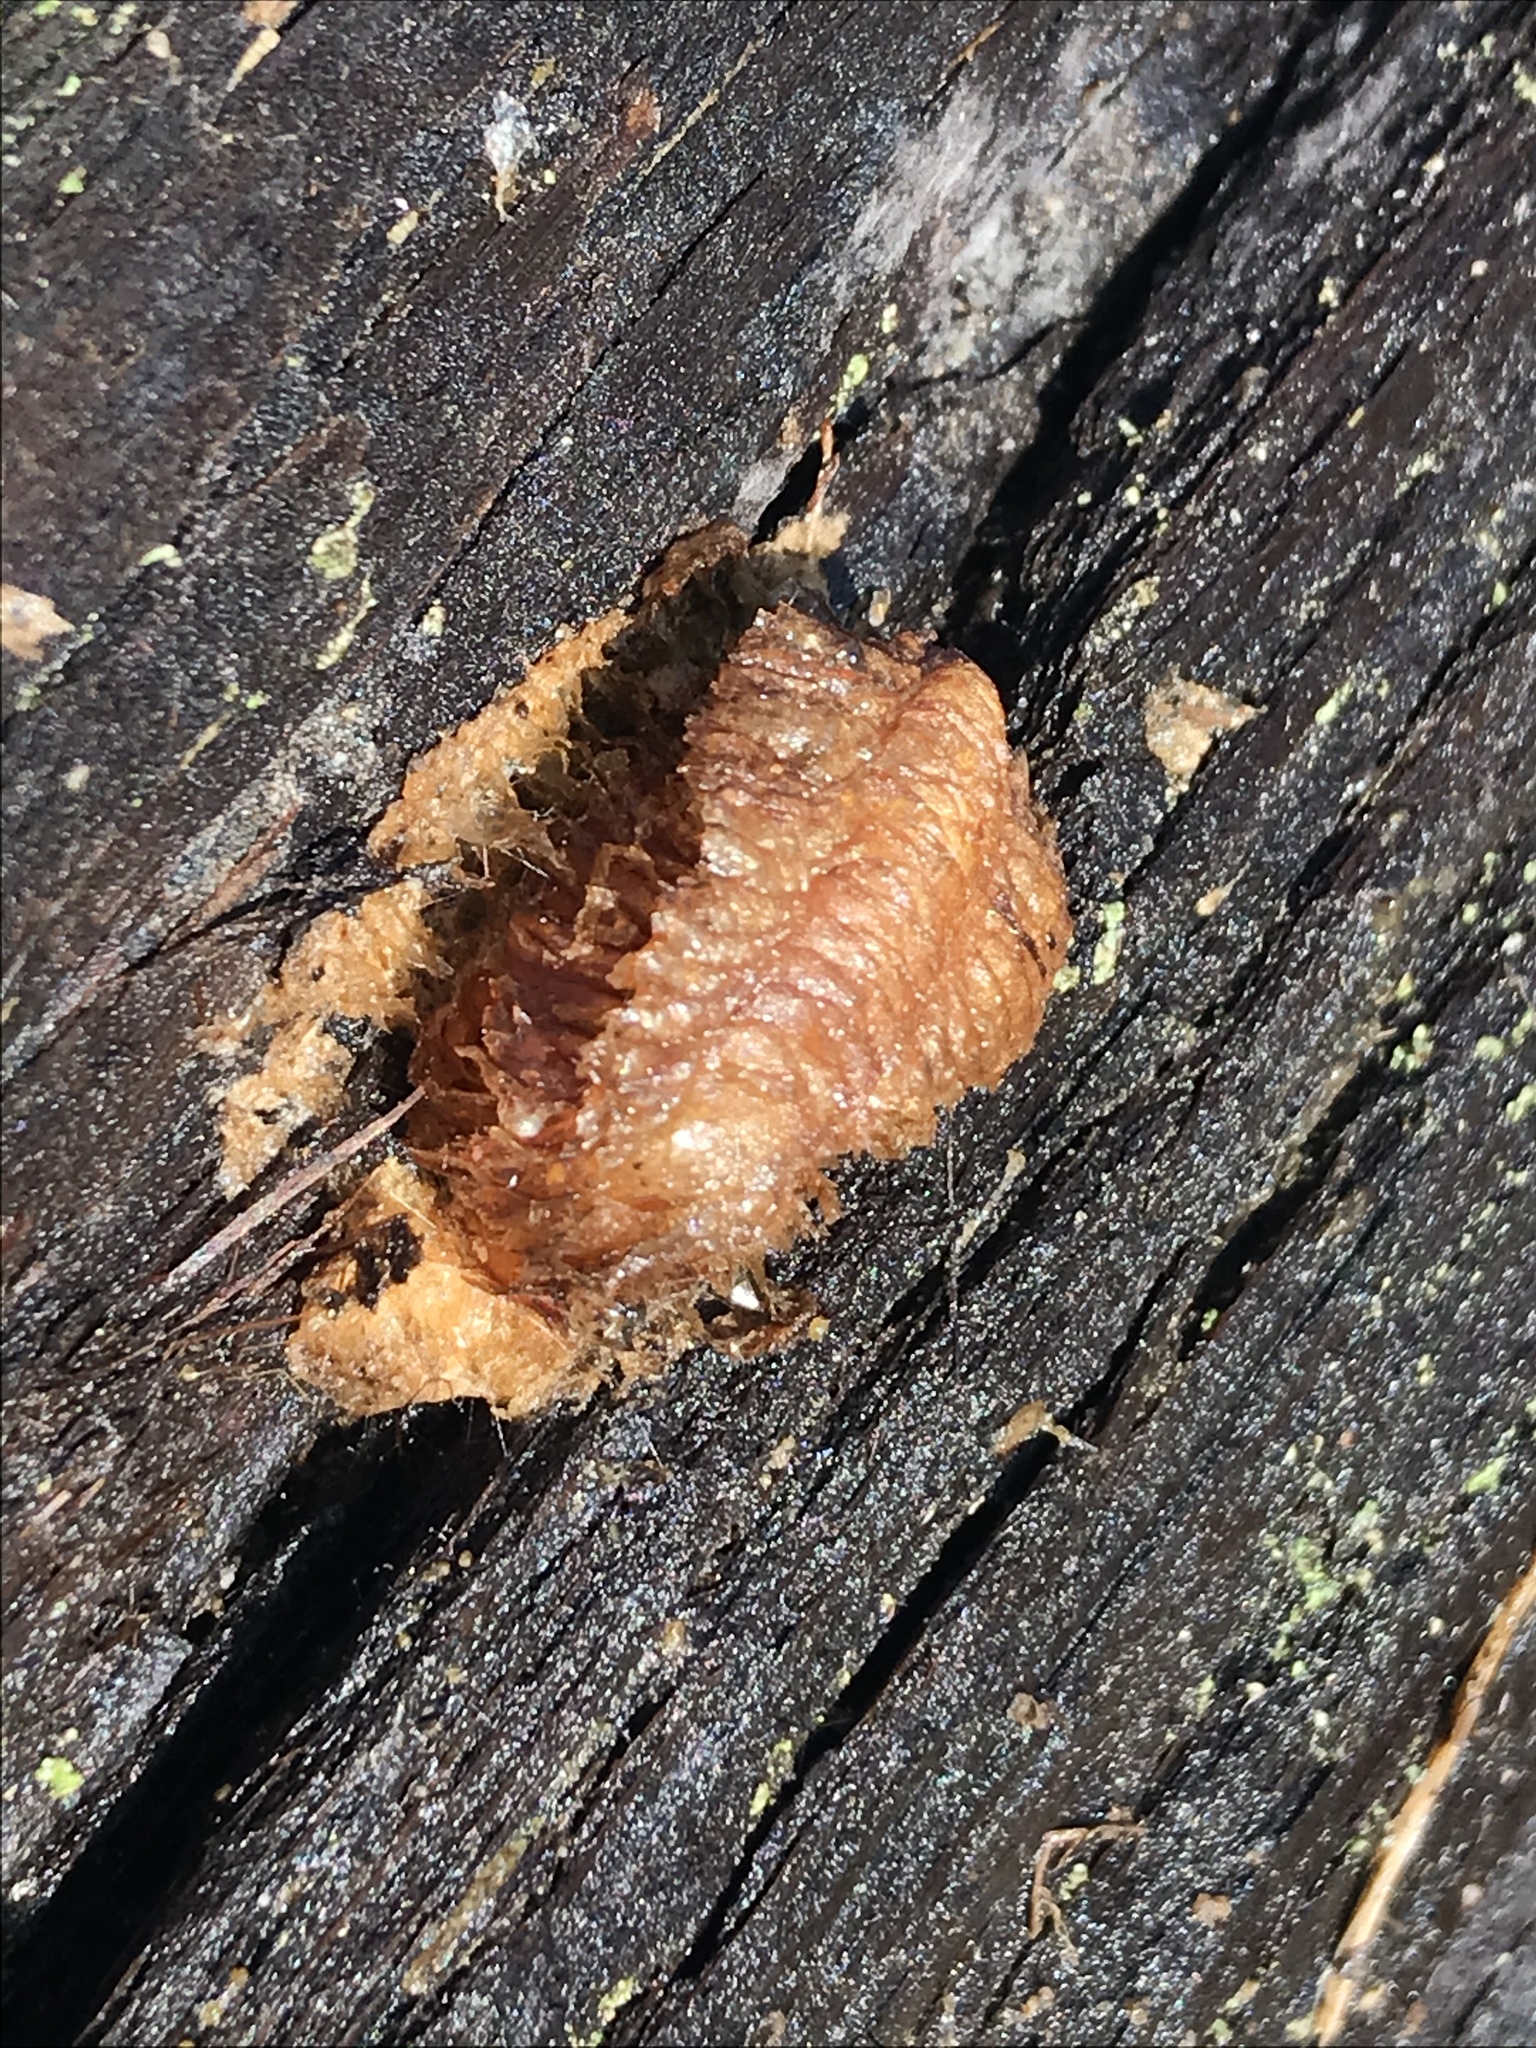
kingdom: Animalia
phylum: Arthropoda
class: Insecta
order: Mantodea
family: Mantidae
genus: Mantis
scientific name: Mantis religiosa
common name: Praying mantis
